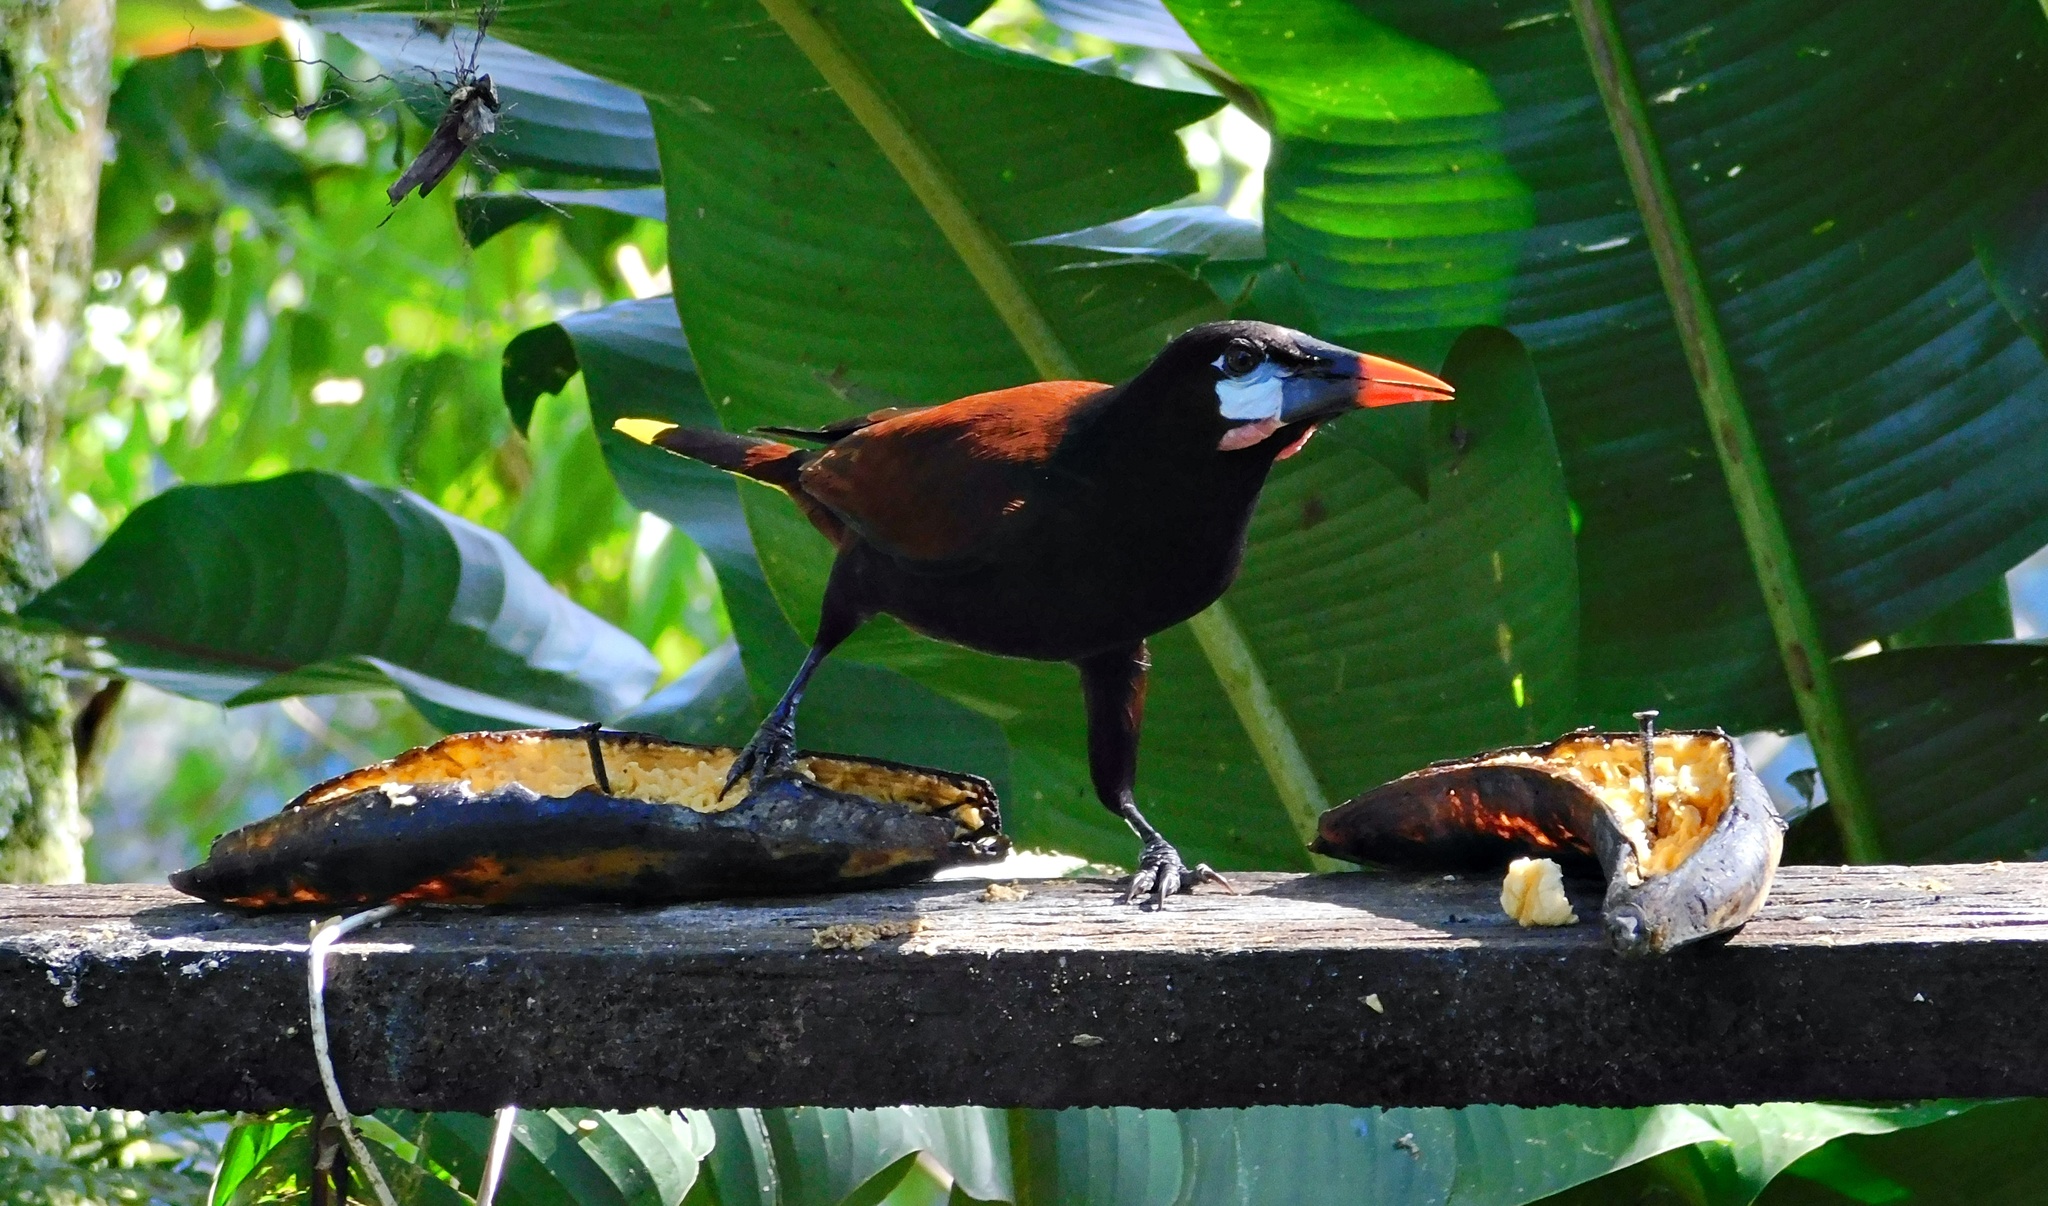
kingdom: Animalia
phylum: Chordata
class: Aves
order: Passeriformes
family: Icteridae
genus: Psarocolius
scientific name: Psarocolius montezuma
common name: Montezuma oropendola
